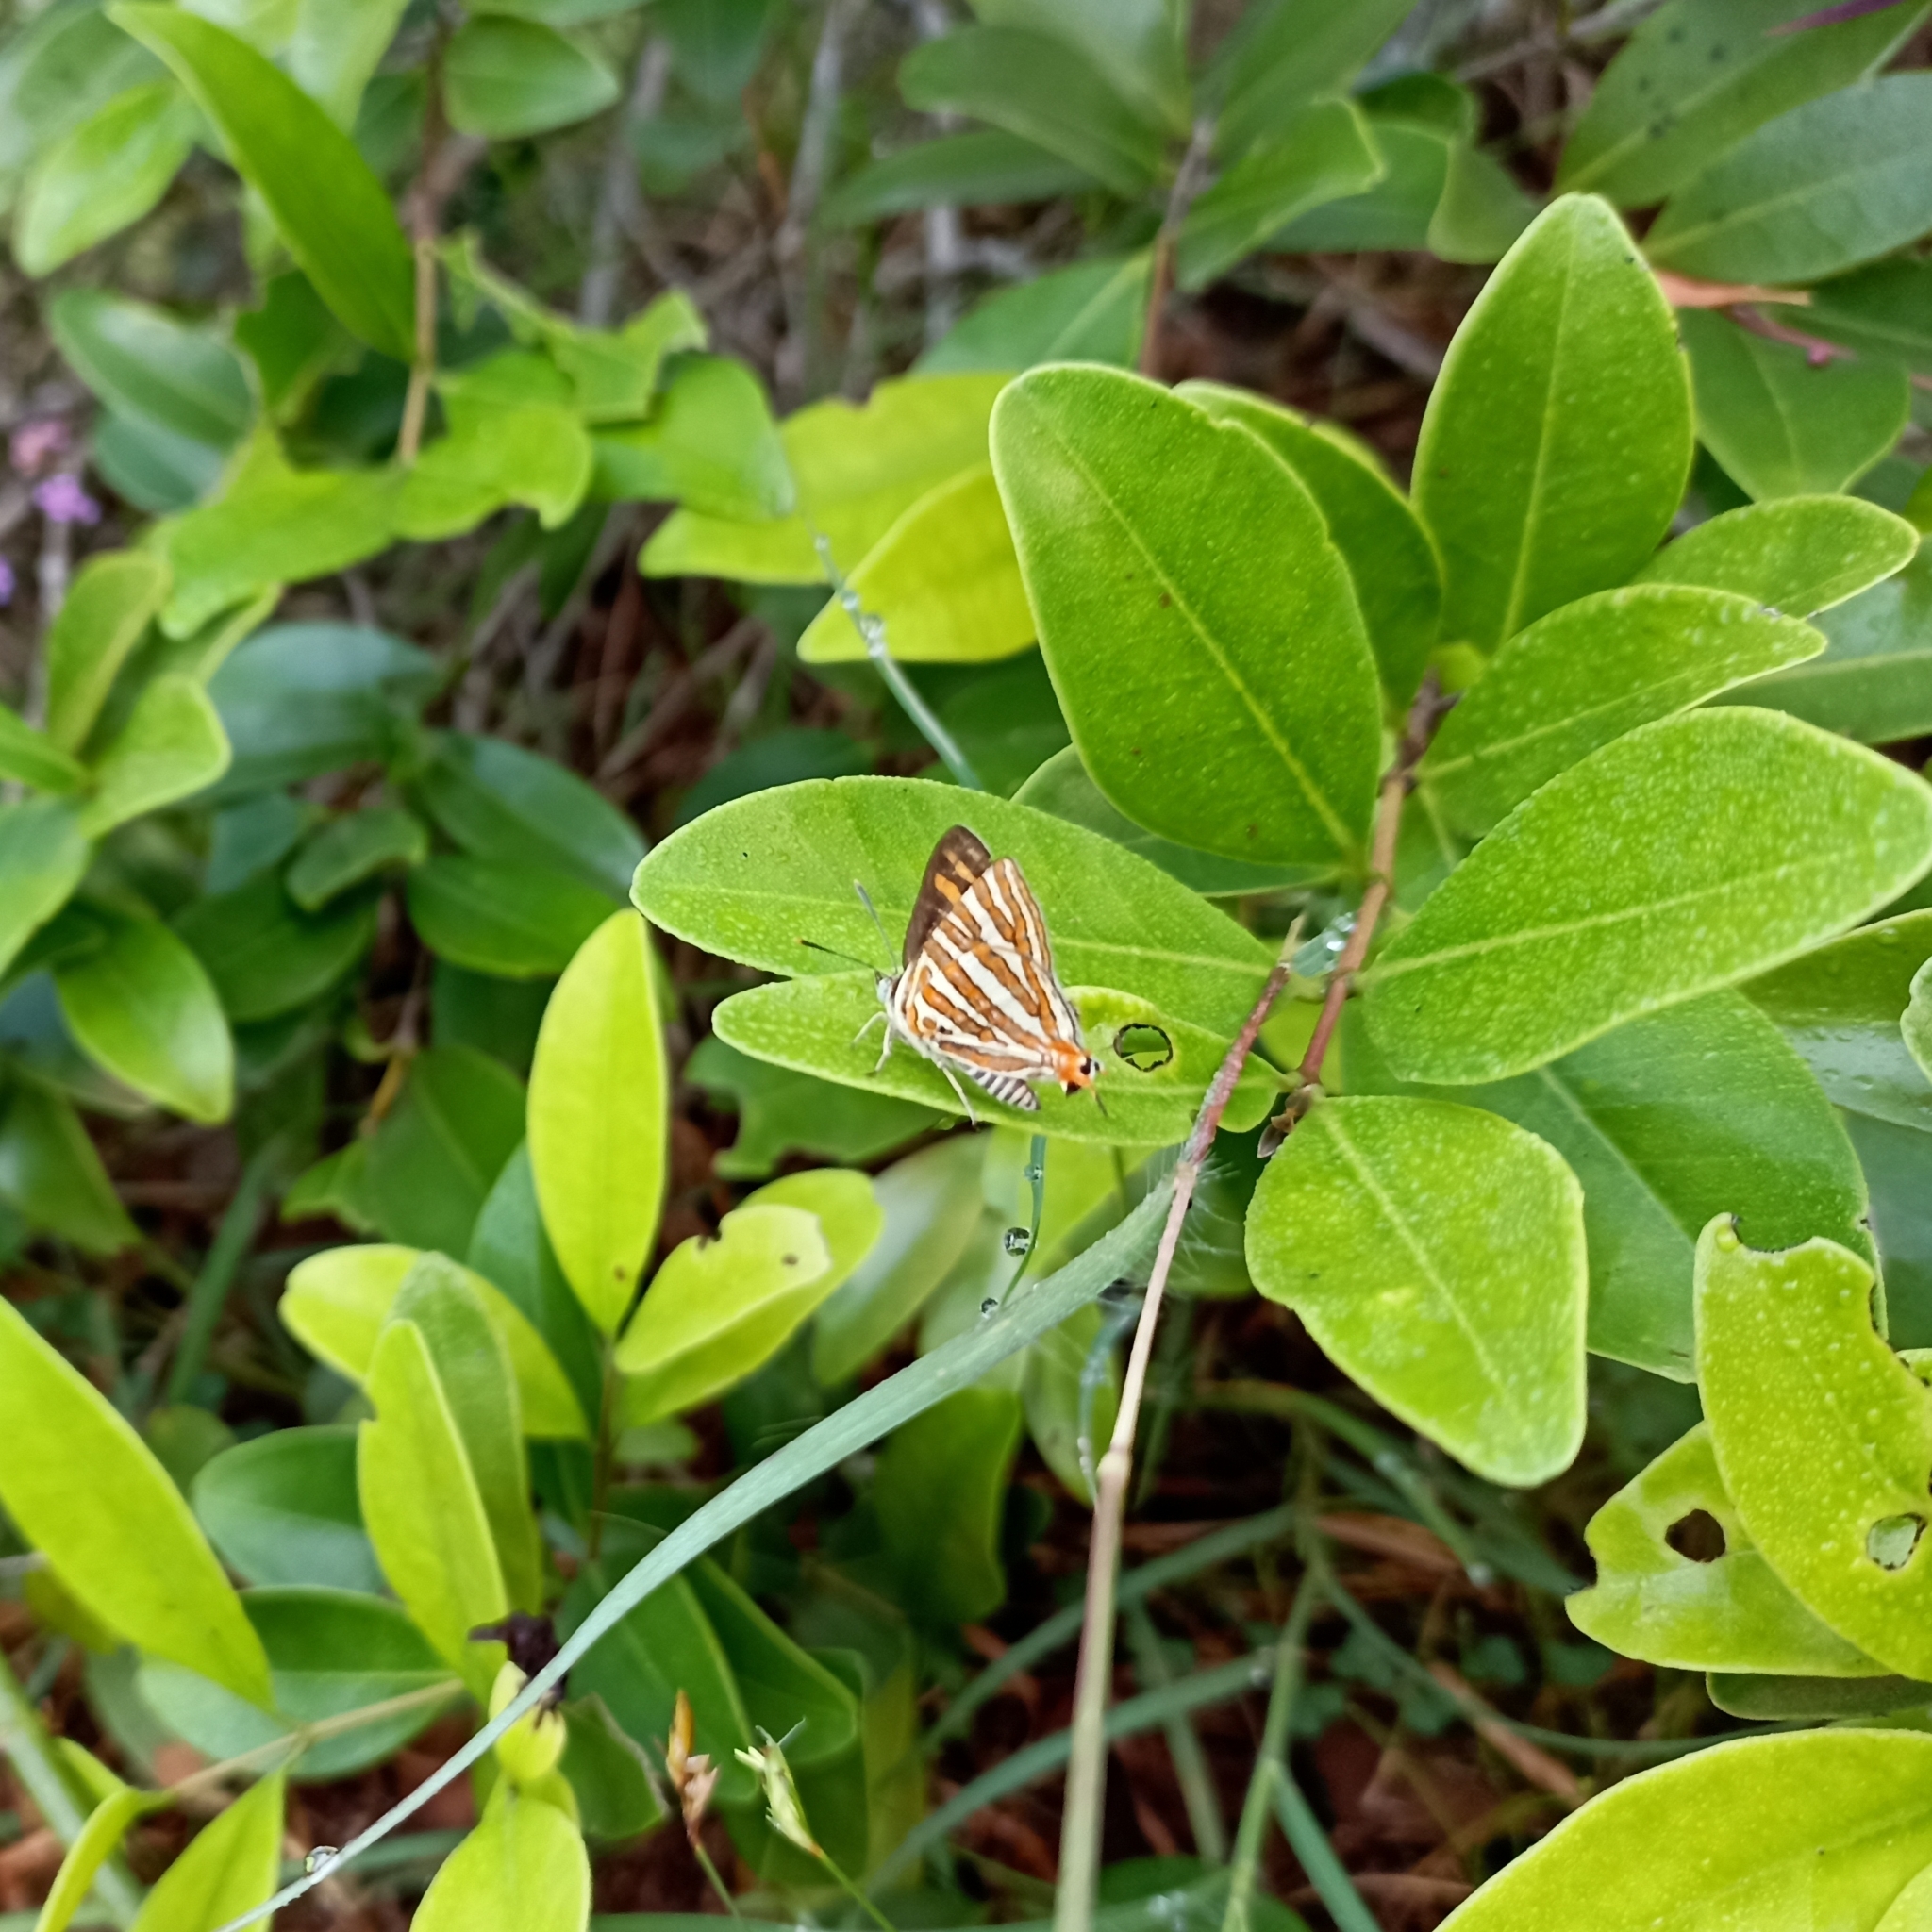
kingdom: Animalia
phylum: Arthropoda
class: Insecta
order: Lepidoptera
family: Lycaenidae
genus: Cigaritis
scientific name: Cigaritis vulcanus
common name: Common silverline
